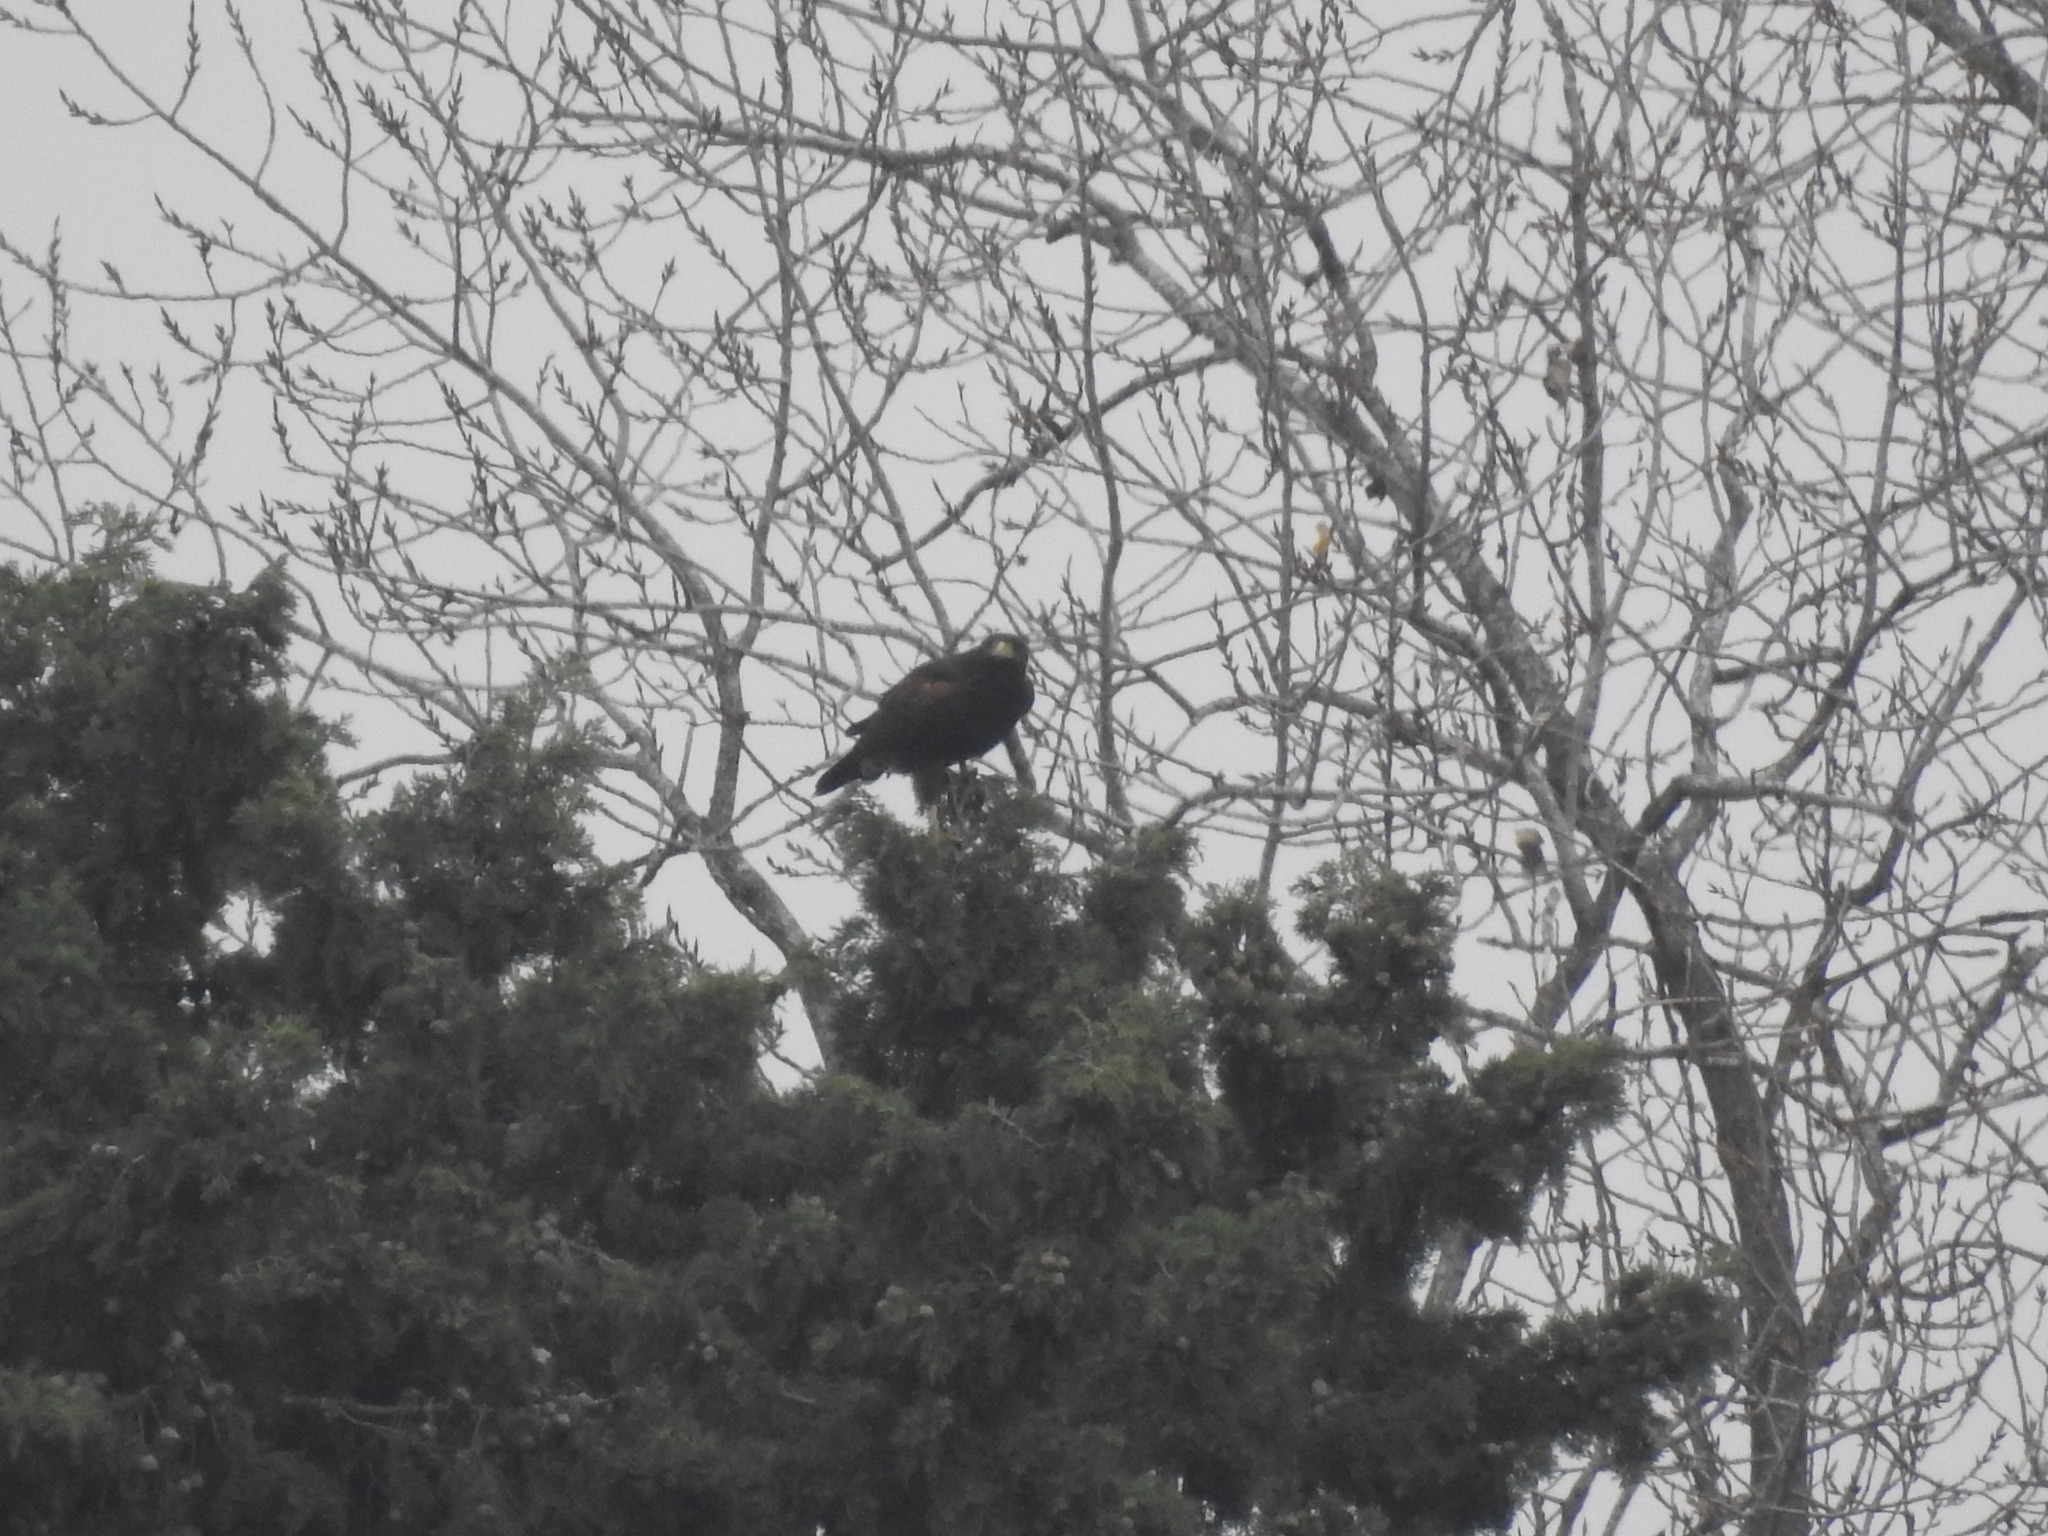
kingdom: Animalia
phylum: Chordata
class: Aves
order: Accipitriformes
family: Accipitridae
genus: Parabuteo
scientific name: Parabuteo unicinctus
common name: Harris's hawk
